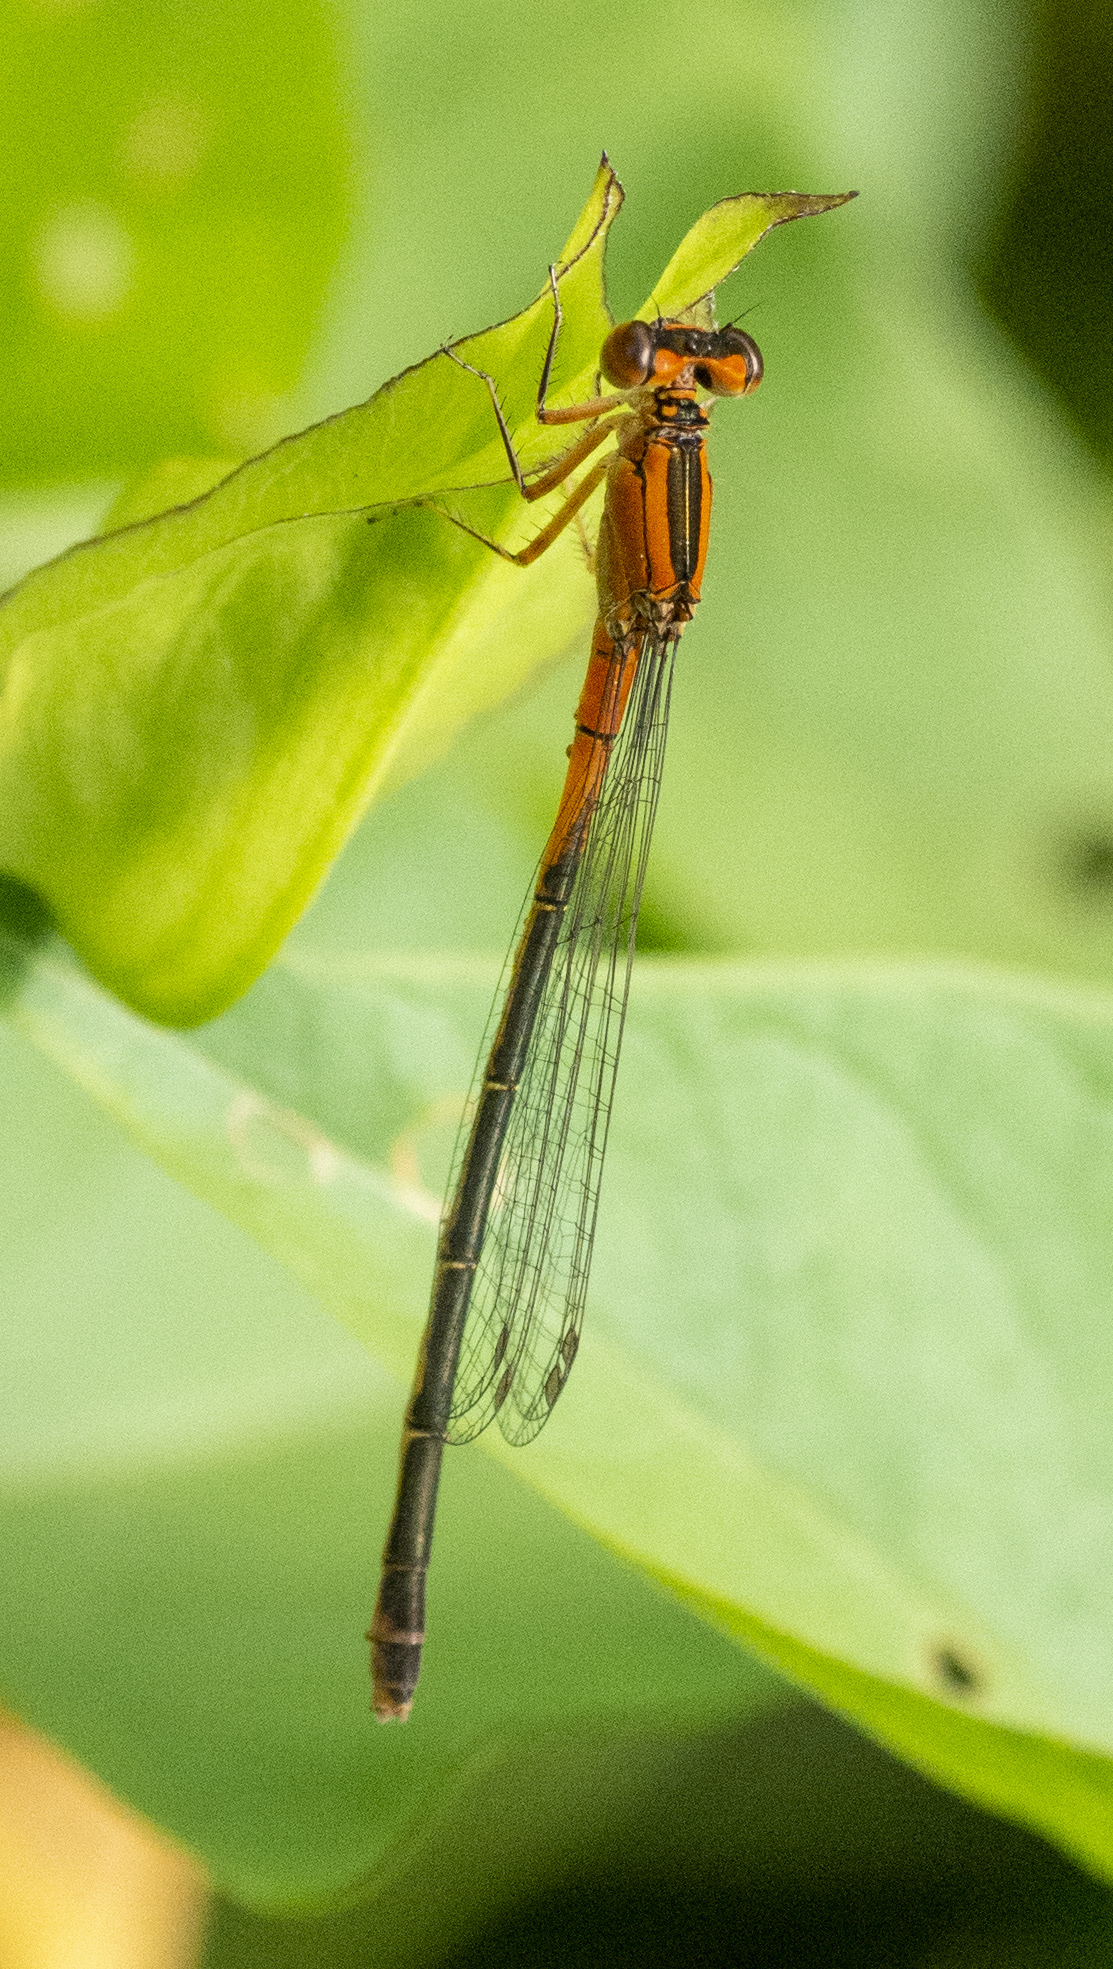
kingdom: Animalia
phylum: Arthropoda
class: Insecta
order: Odonata
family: Coenagrionidae
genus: Ischnura
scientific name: Ischnura verticalis
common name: Eastern forktail
